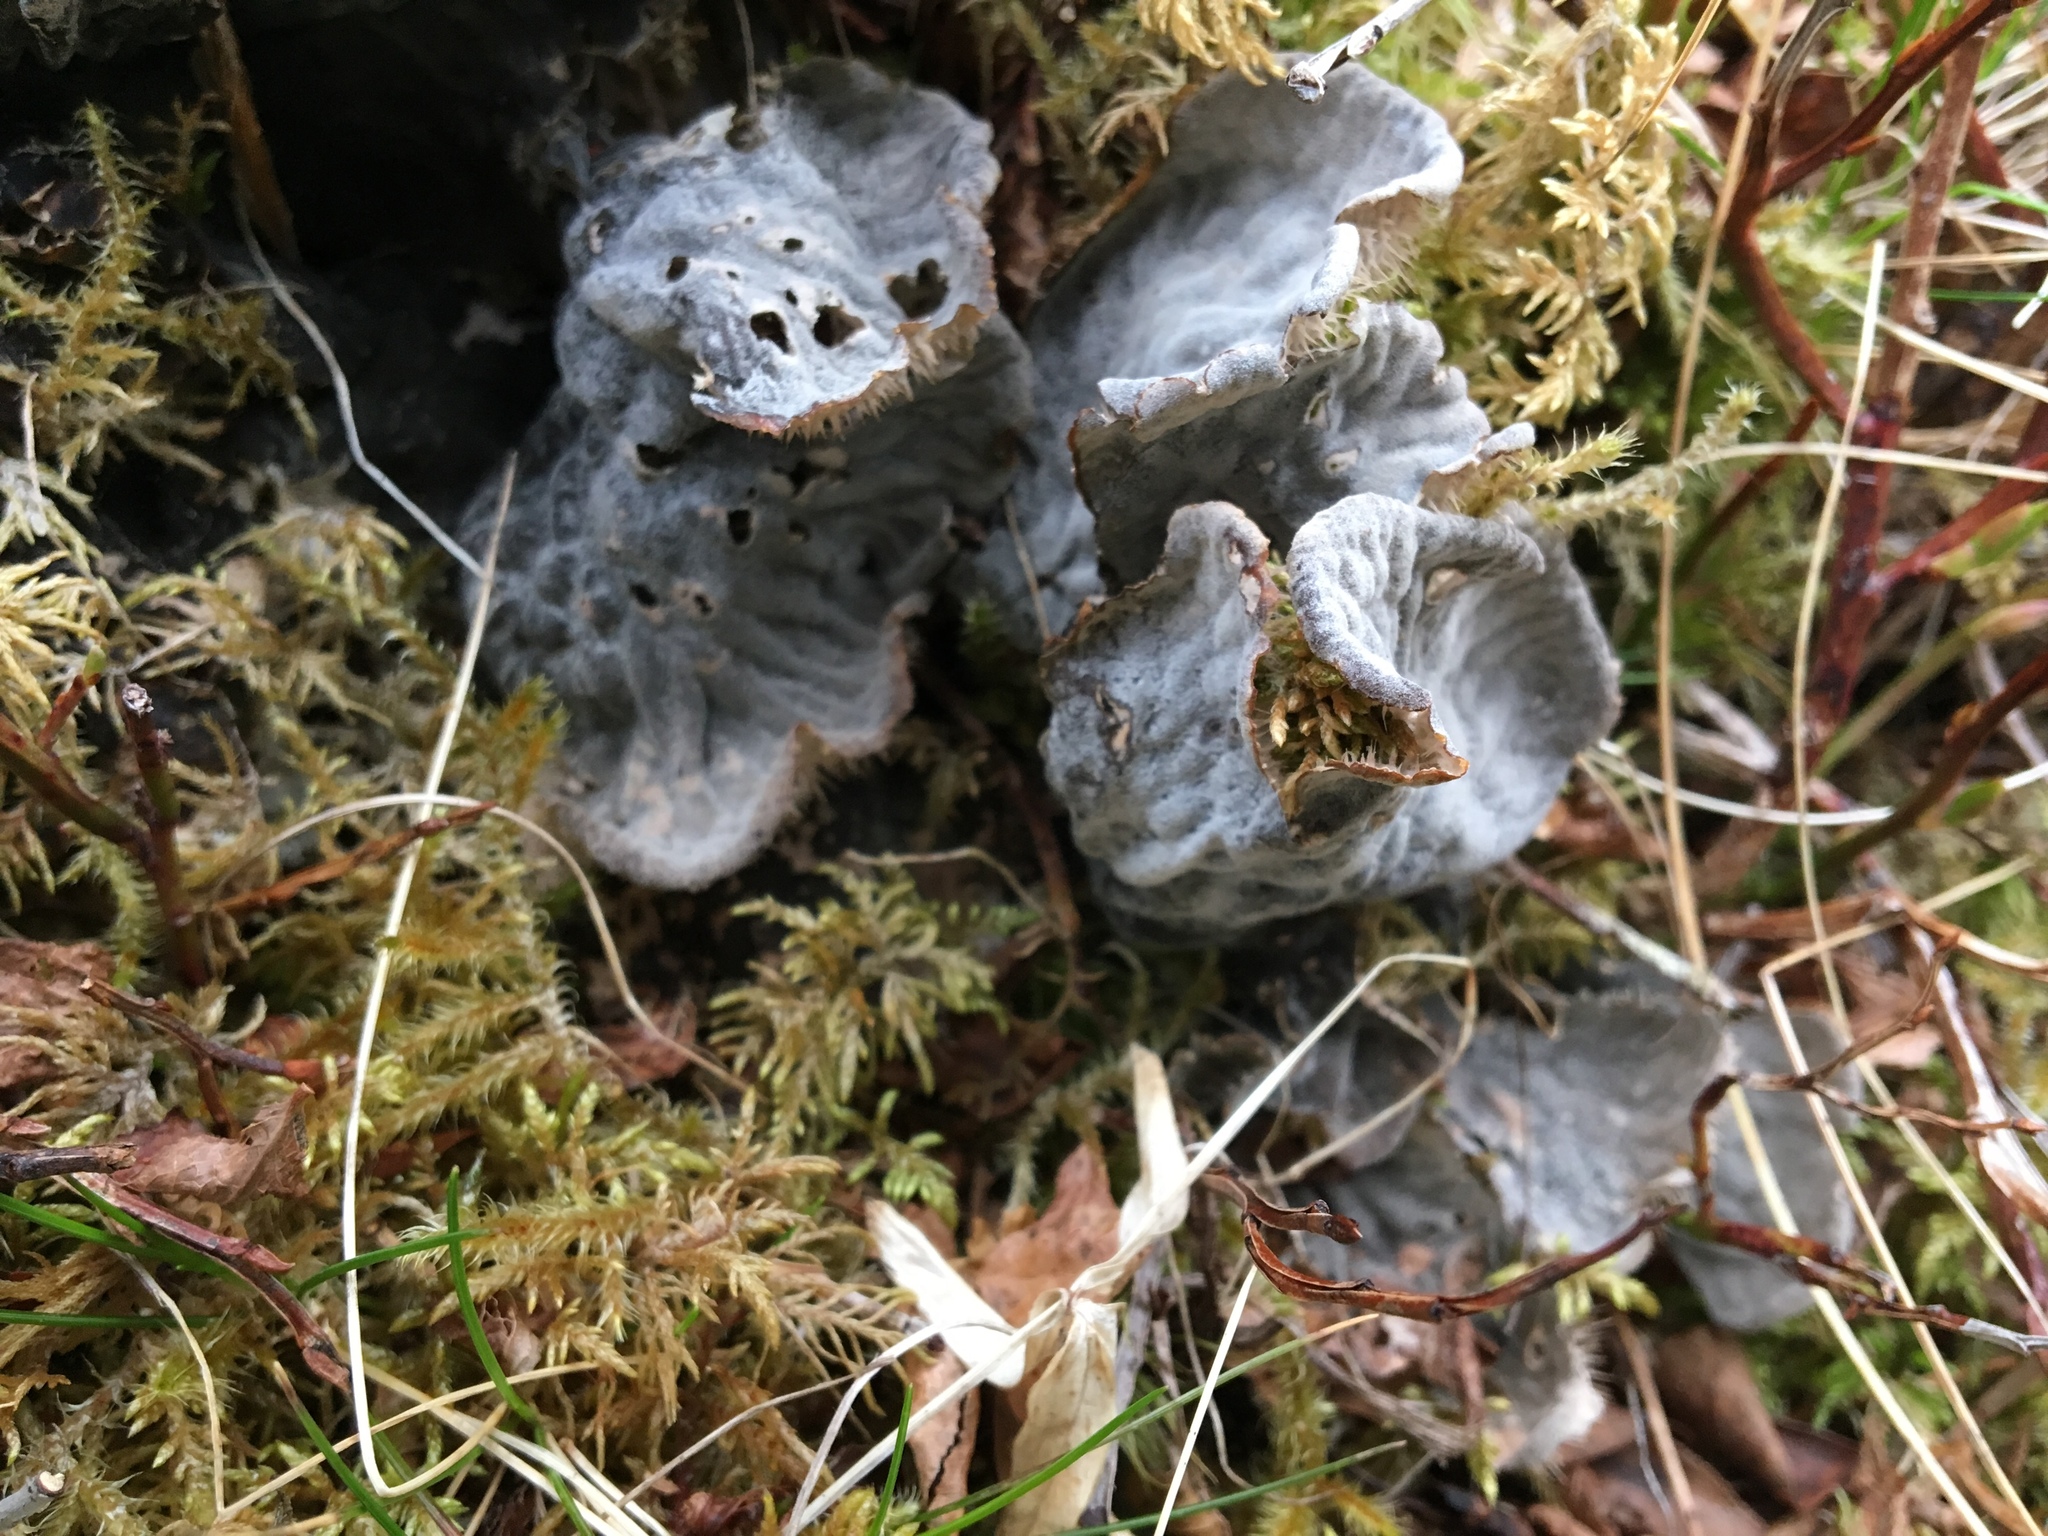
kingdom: Fungi
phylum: Ascomycota
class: Lecanoromycetes
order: Peltigerales
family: Peltigeraceae
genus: Peltigera
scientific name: Peltigera canina
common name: Dog pelt lichen
